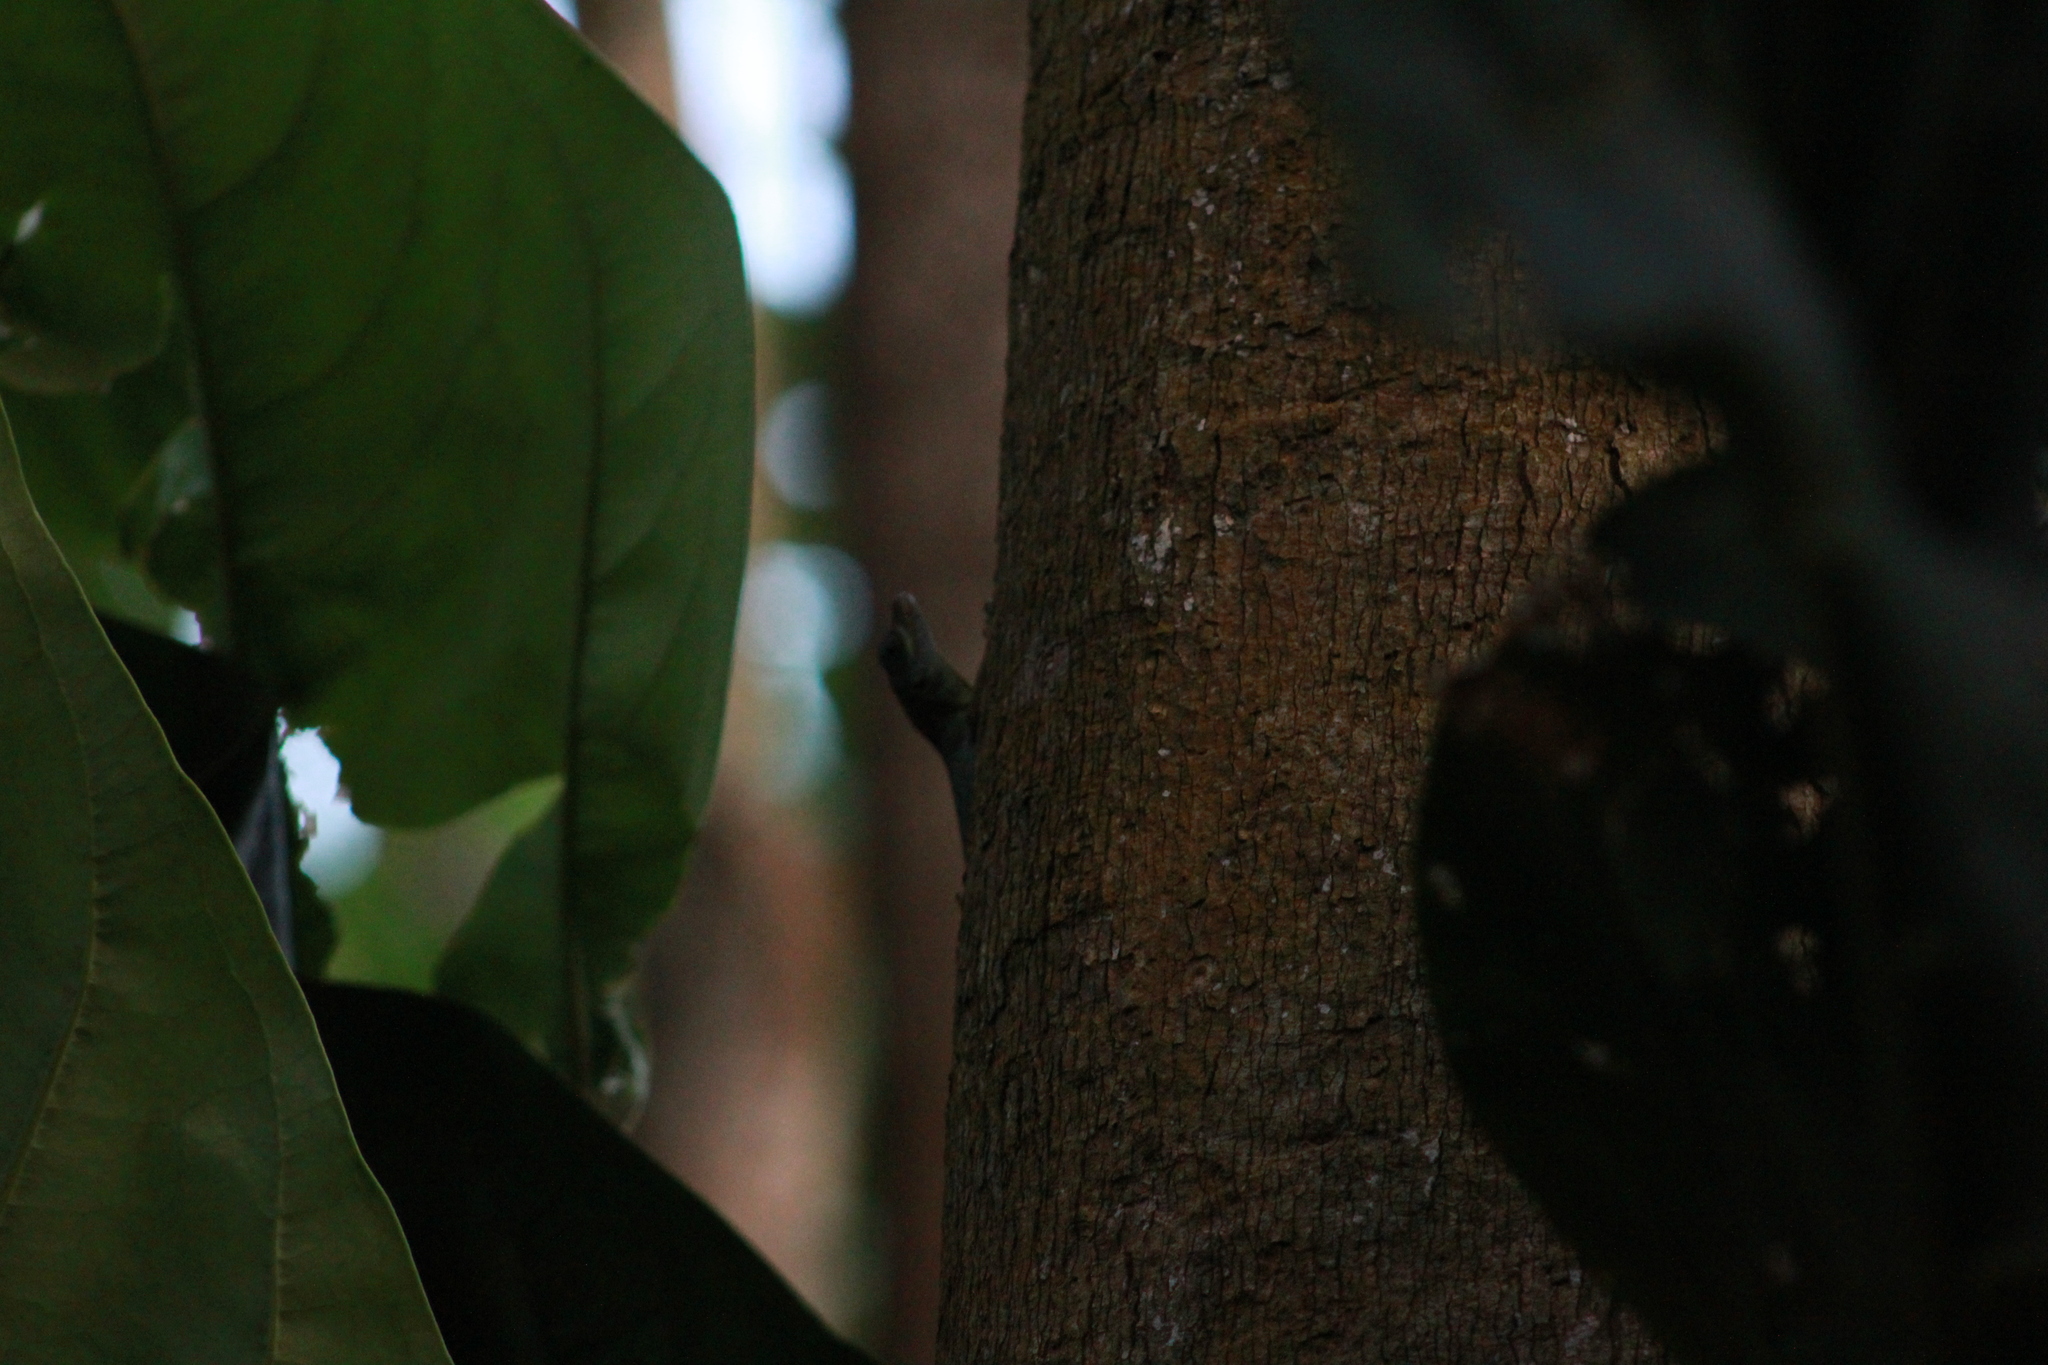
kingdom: Animalia
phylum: Chordata
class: Squamata
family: Dactyloidae
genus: Anolis
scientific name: Anolis richardii
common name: Grenada tree anole
